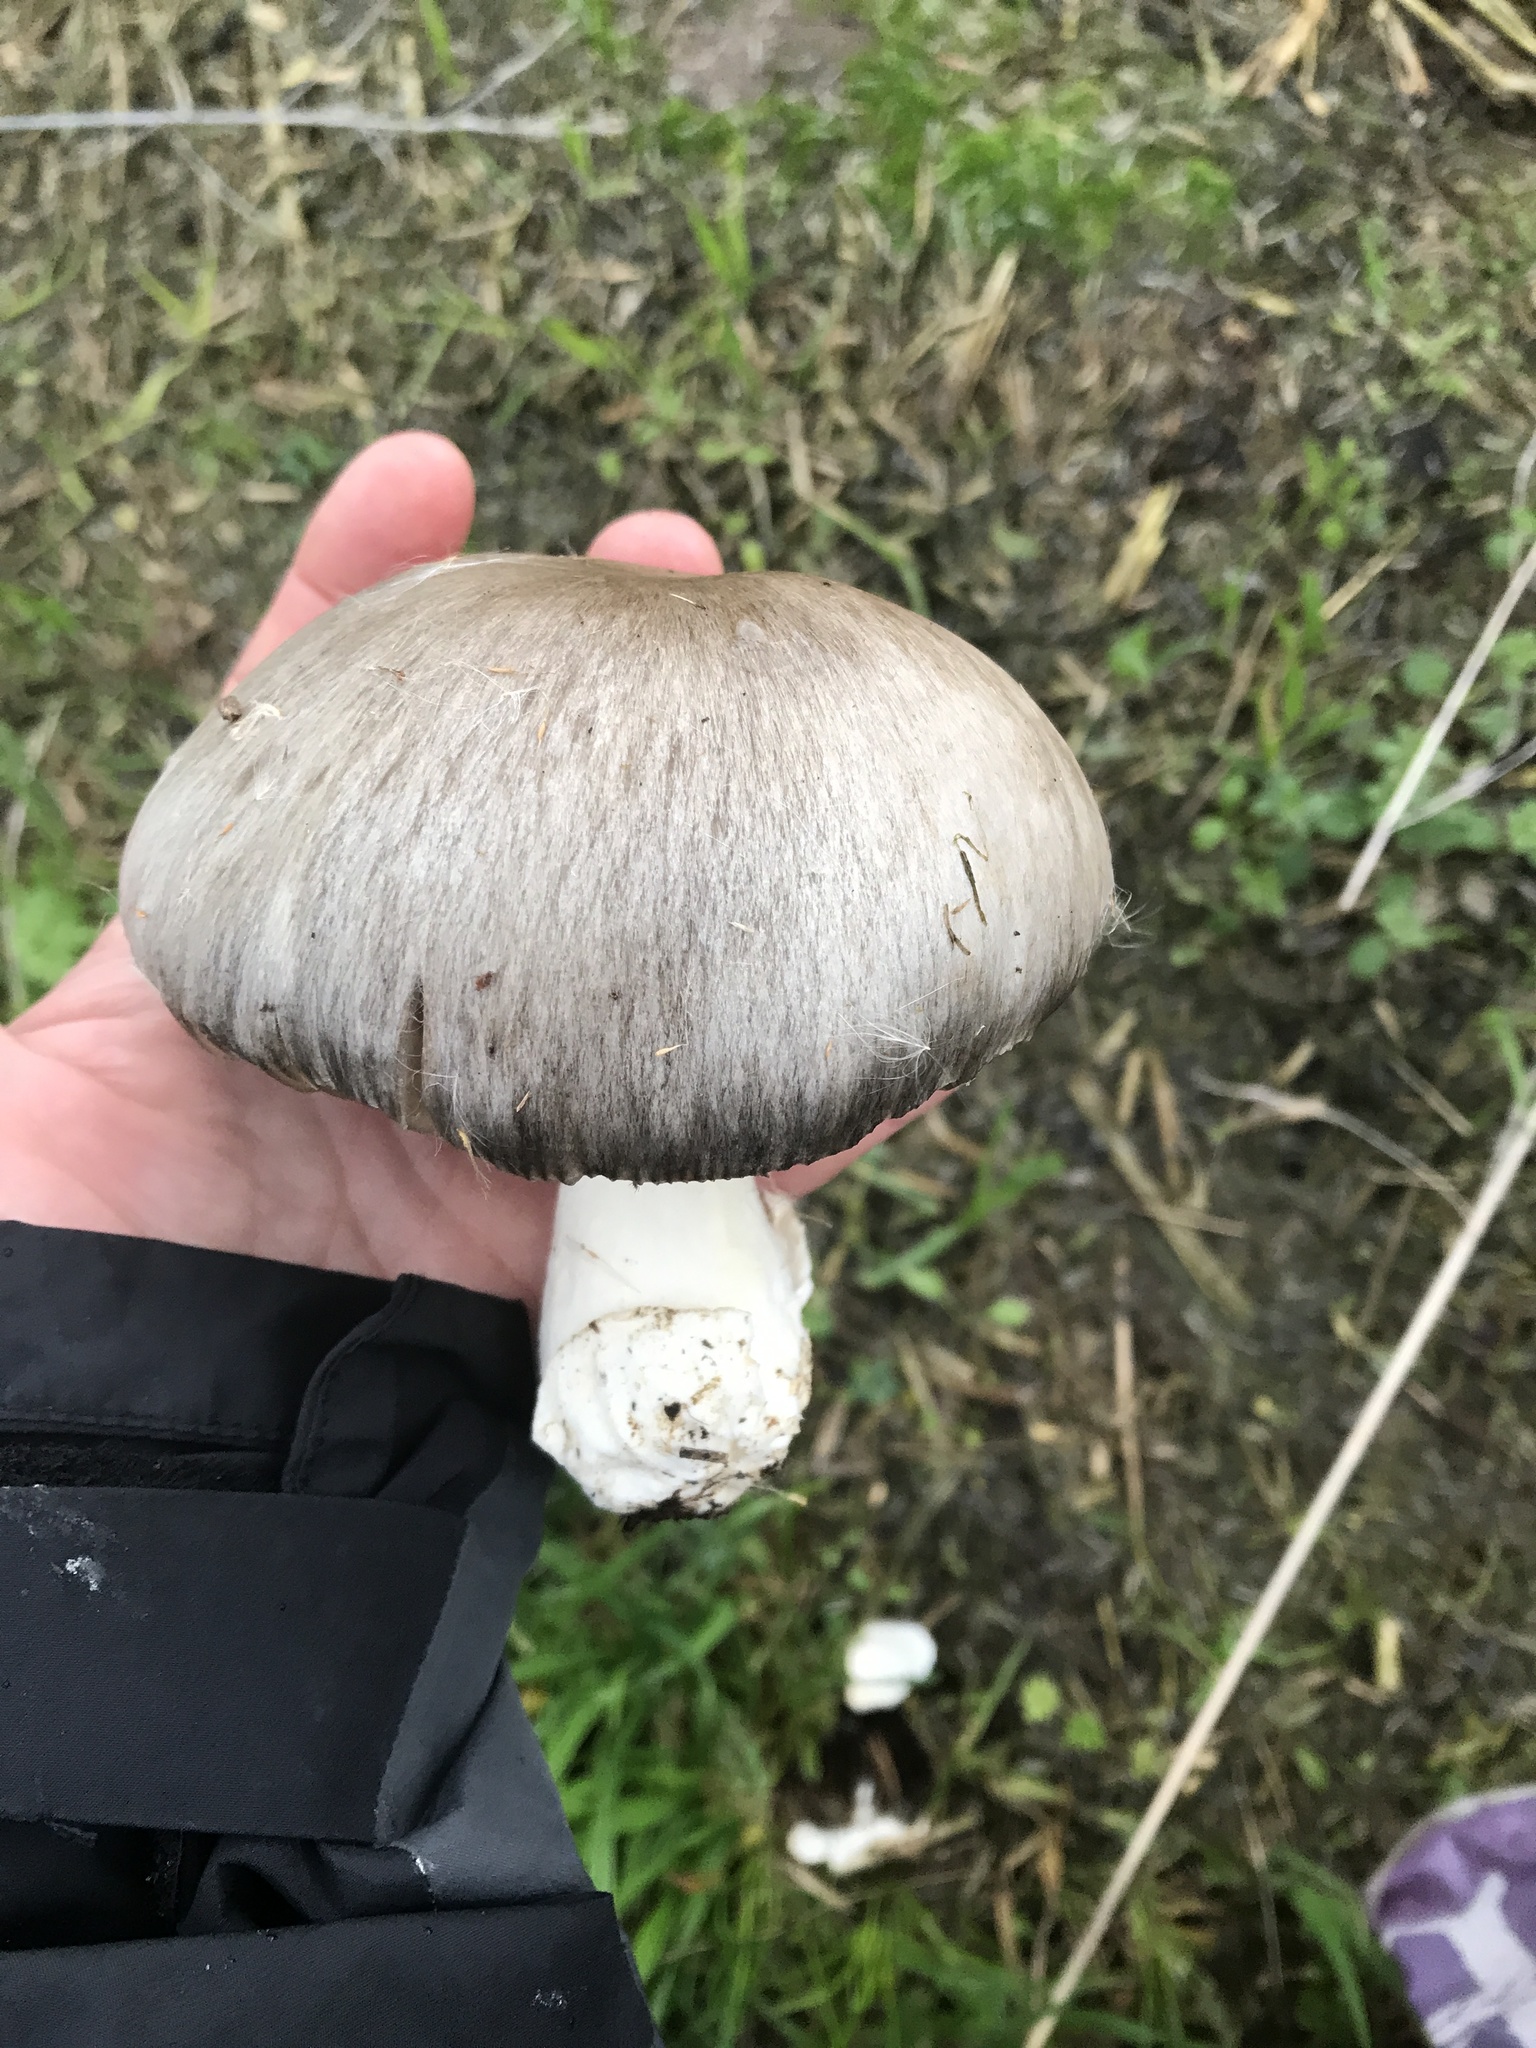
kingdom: Fungi
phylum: Basidiomycota
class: Agaricomycetes
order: Agaricales
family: Pluteaceae
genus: Volvopluteus
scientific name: Volvopluteus gloiocephalus
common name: Stubble rosegill
